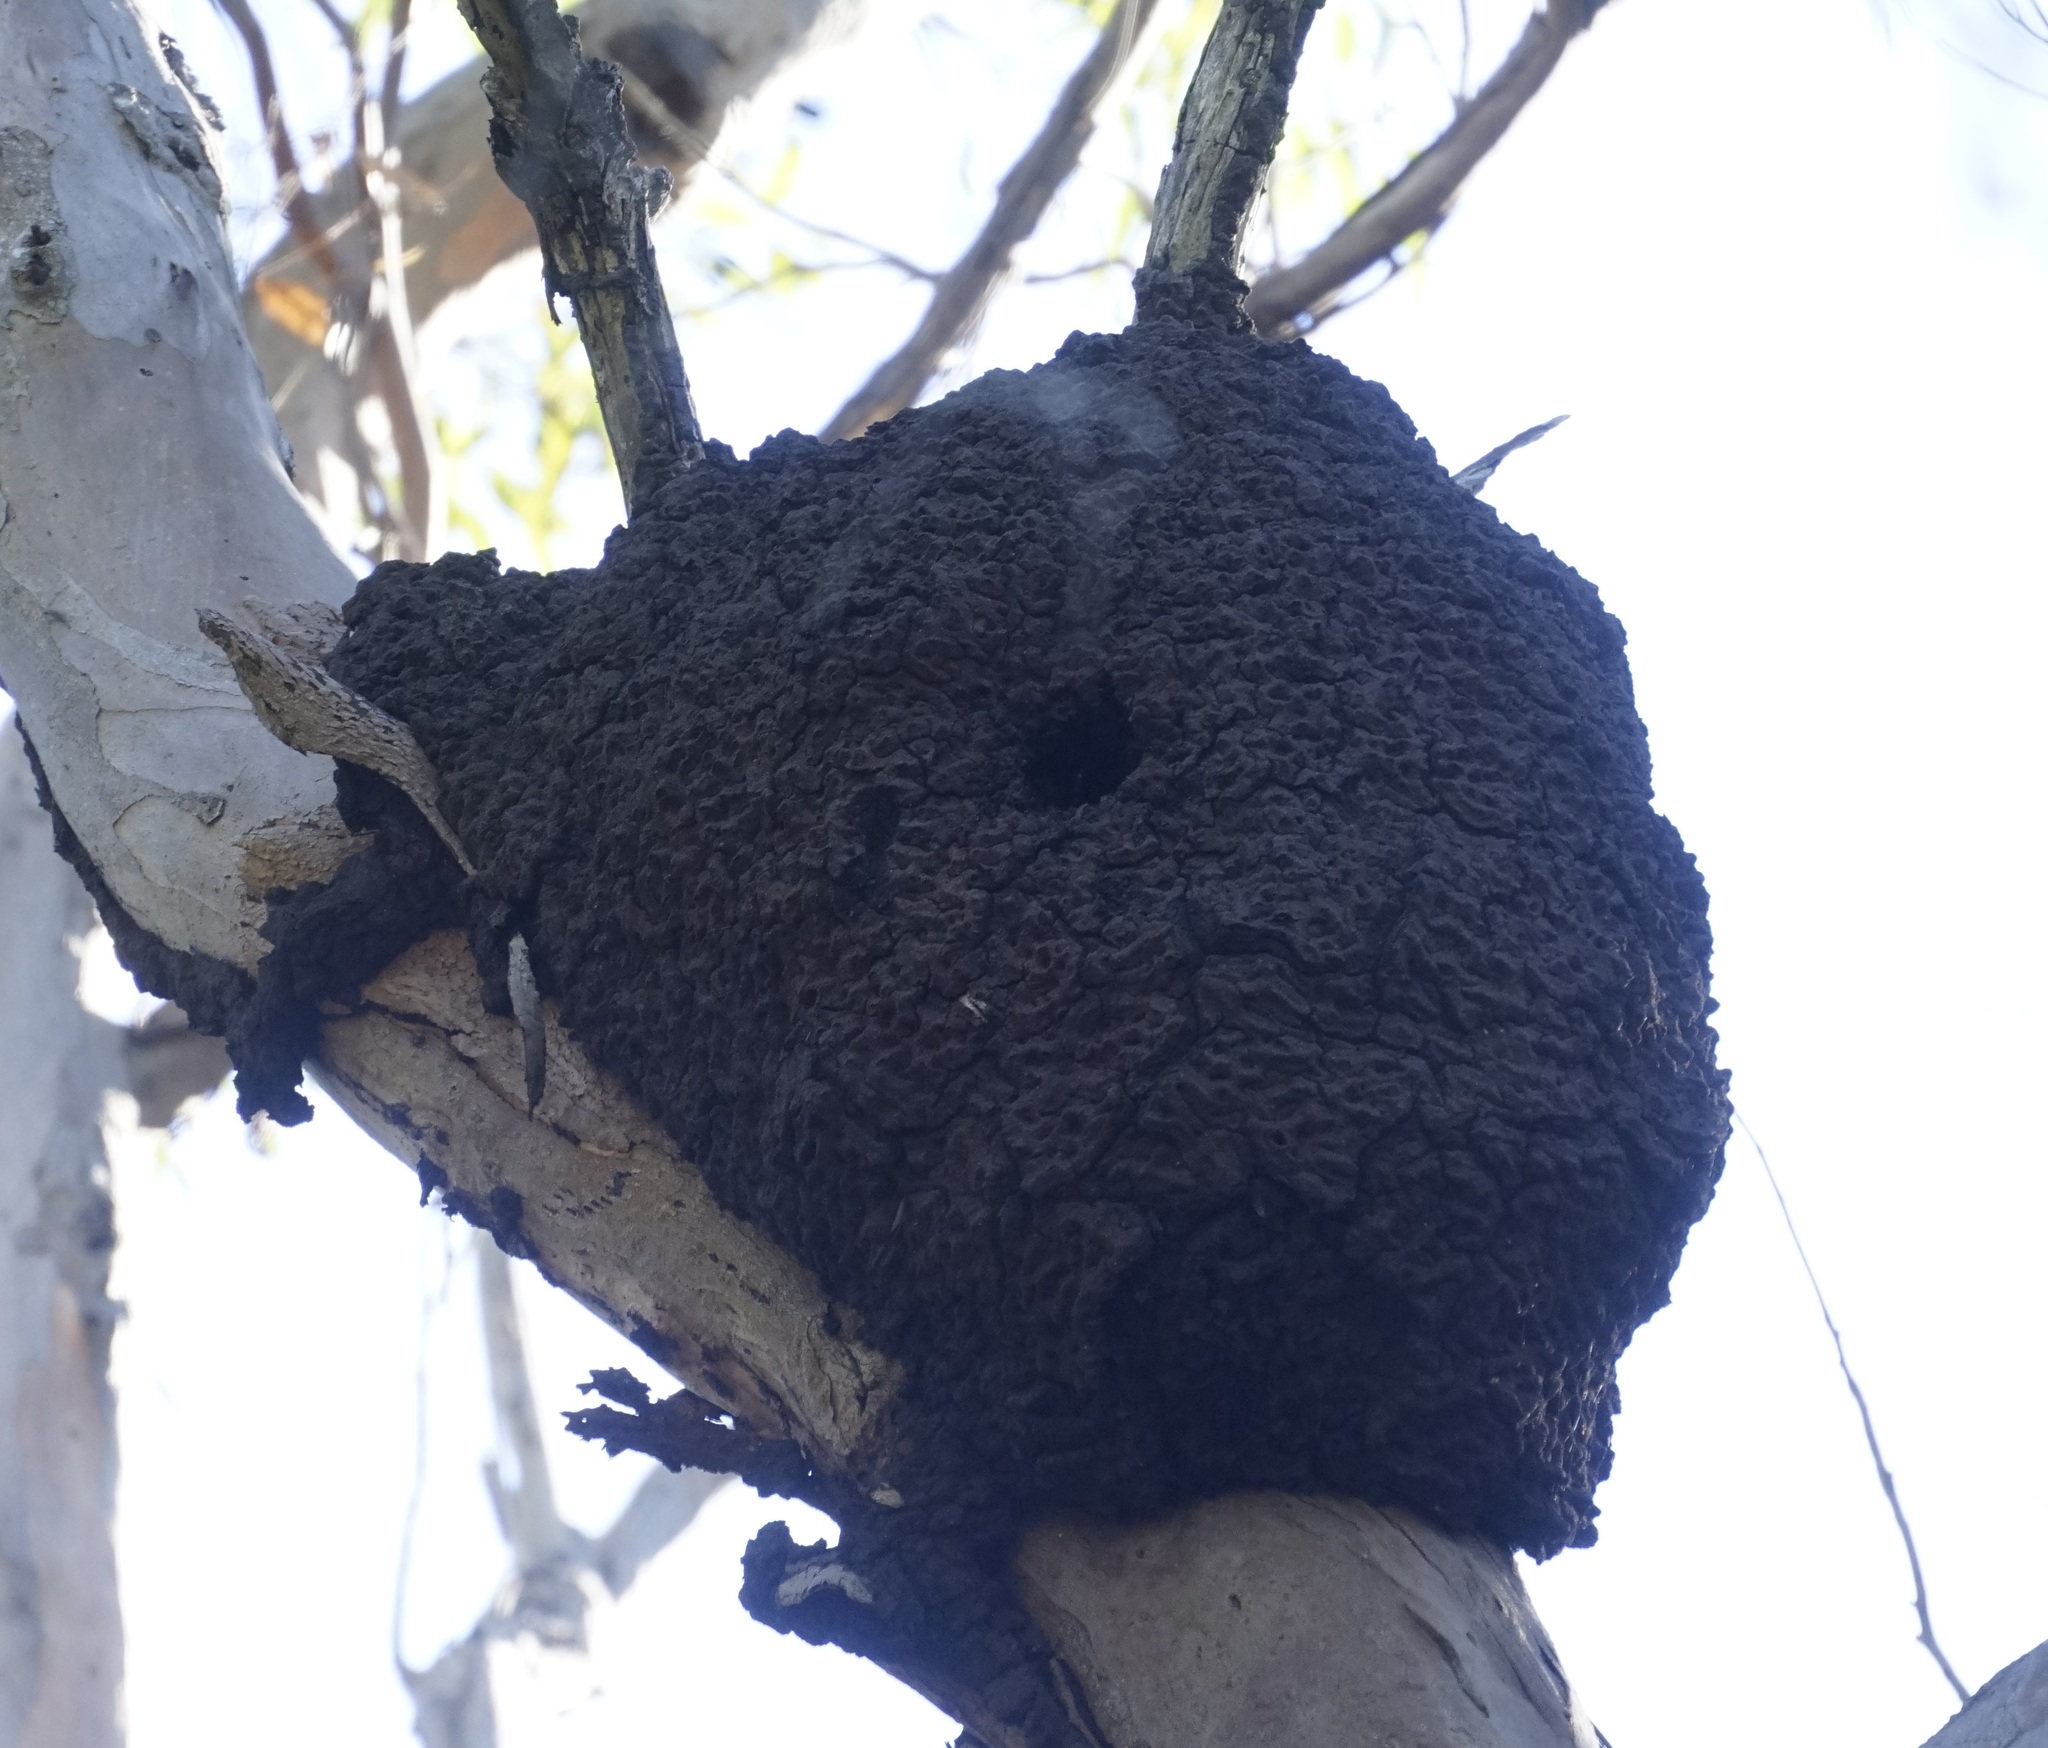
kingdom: Animalia
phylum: Arthropoda
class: Insecta
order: Blattodea
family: Termitidae
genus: Nasutitermes
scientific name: Nasutitermes walkeri
